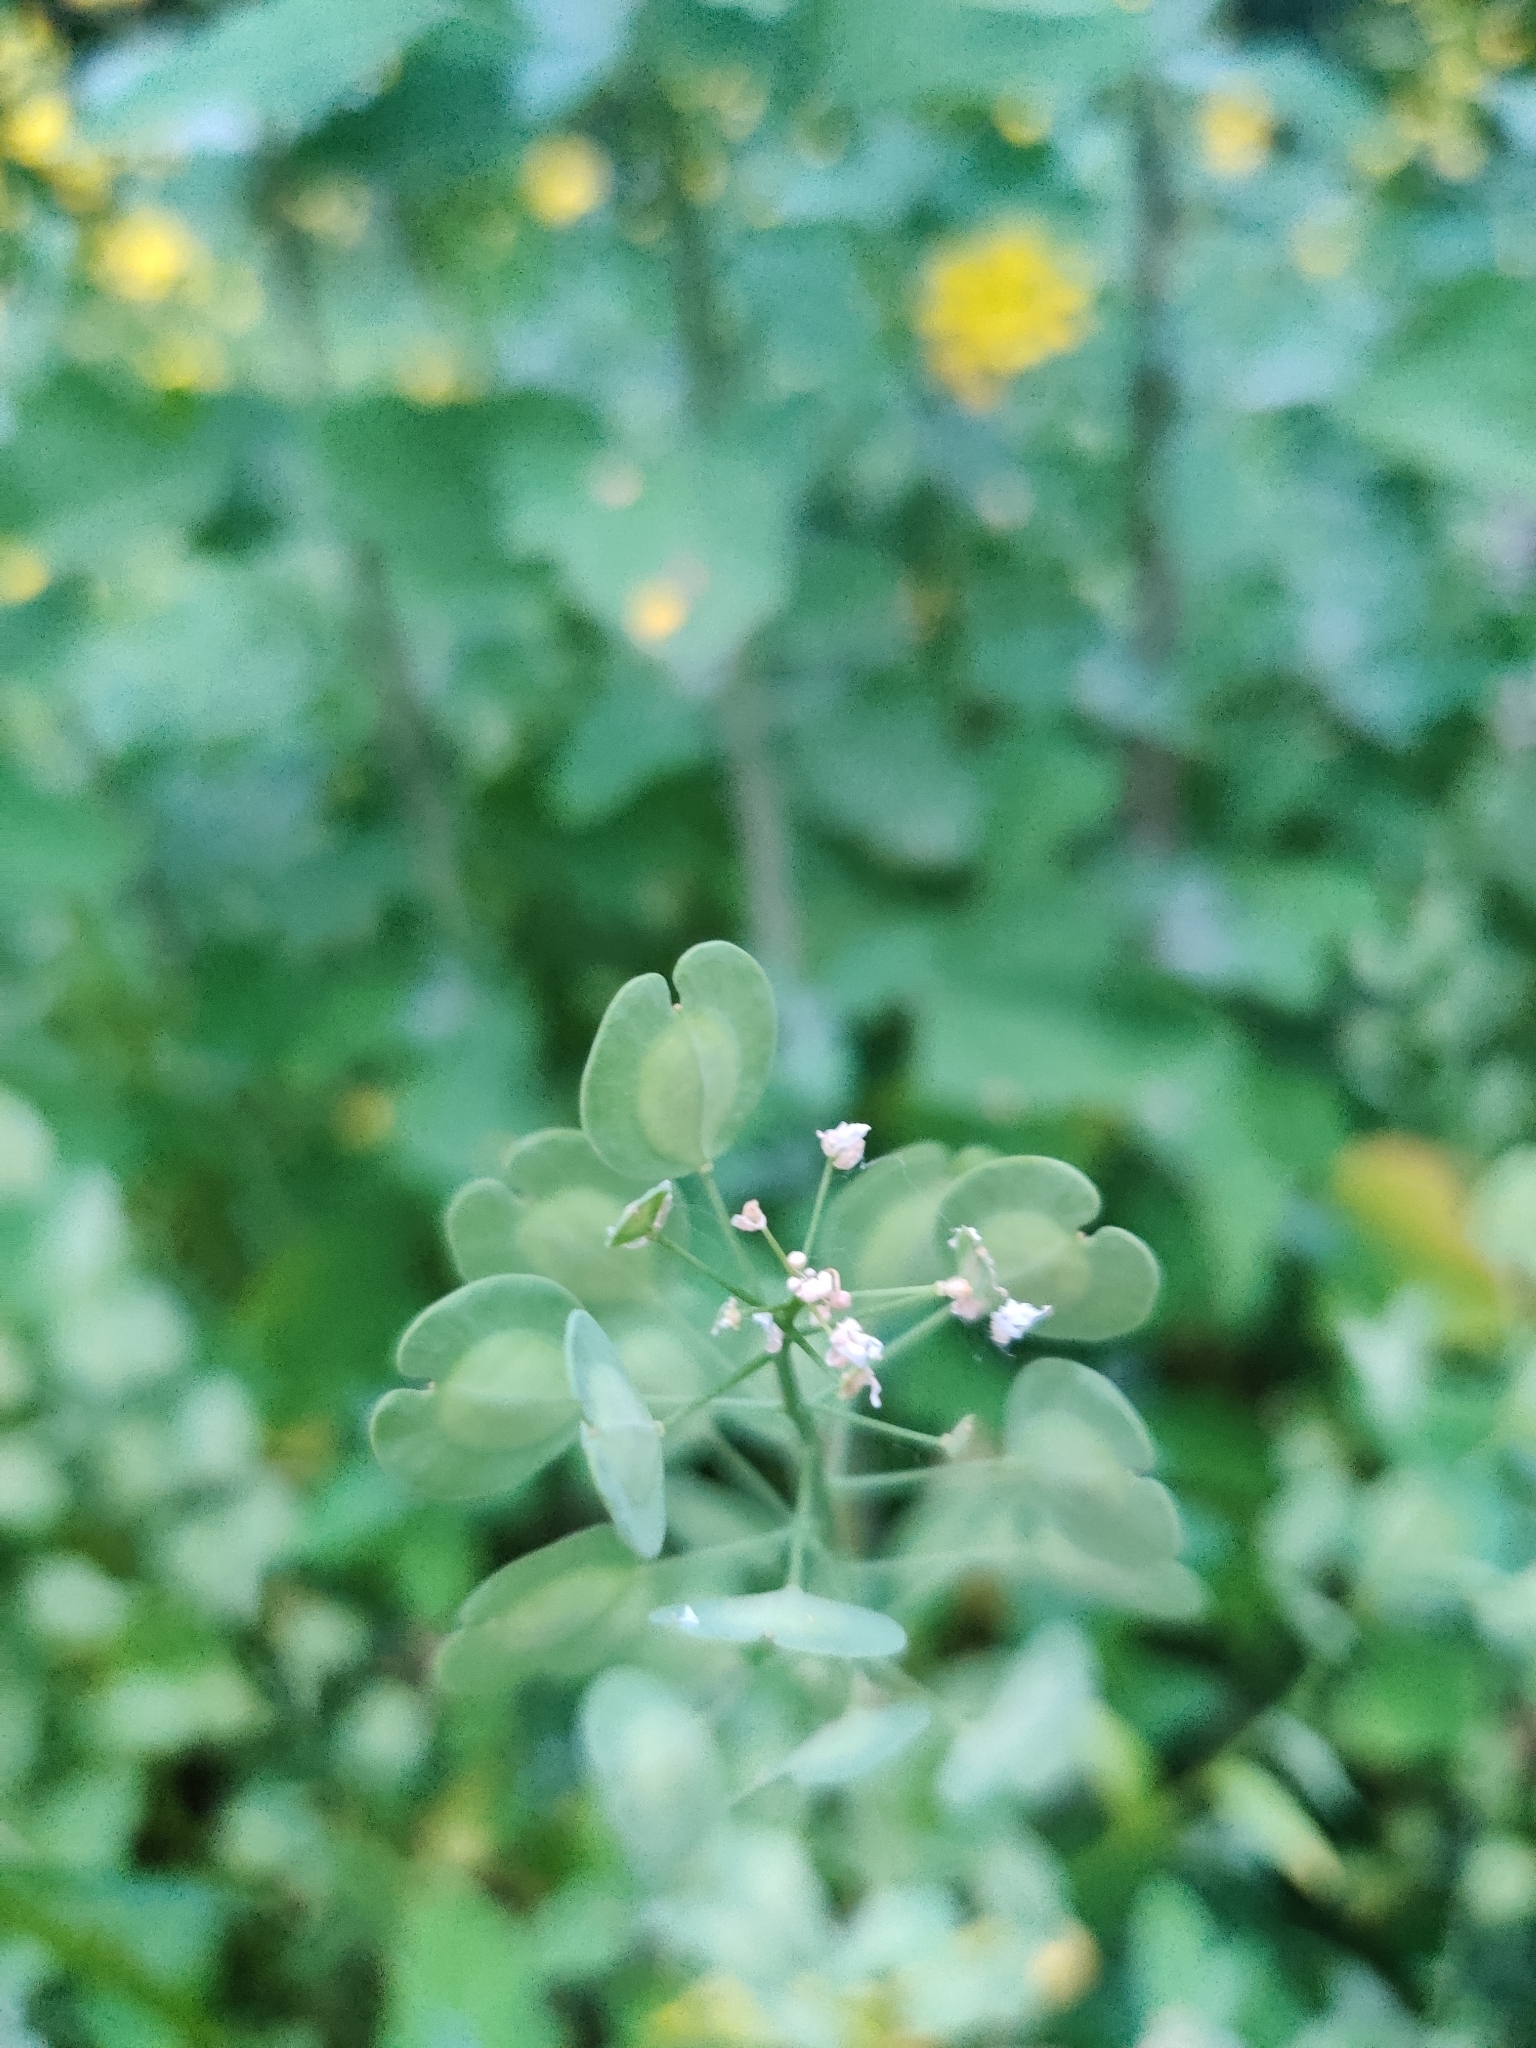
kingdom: Plantae
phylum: Tracheophyta
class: Magnoliopsida
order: Brassicales
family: Brassicaceae
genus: Thlaspi
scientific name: Thlaspi arvense
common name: Field pennycress
